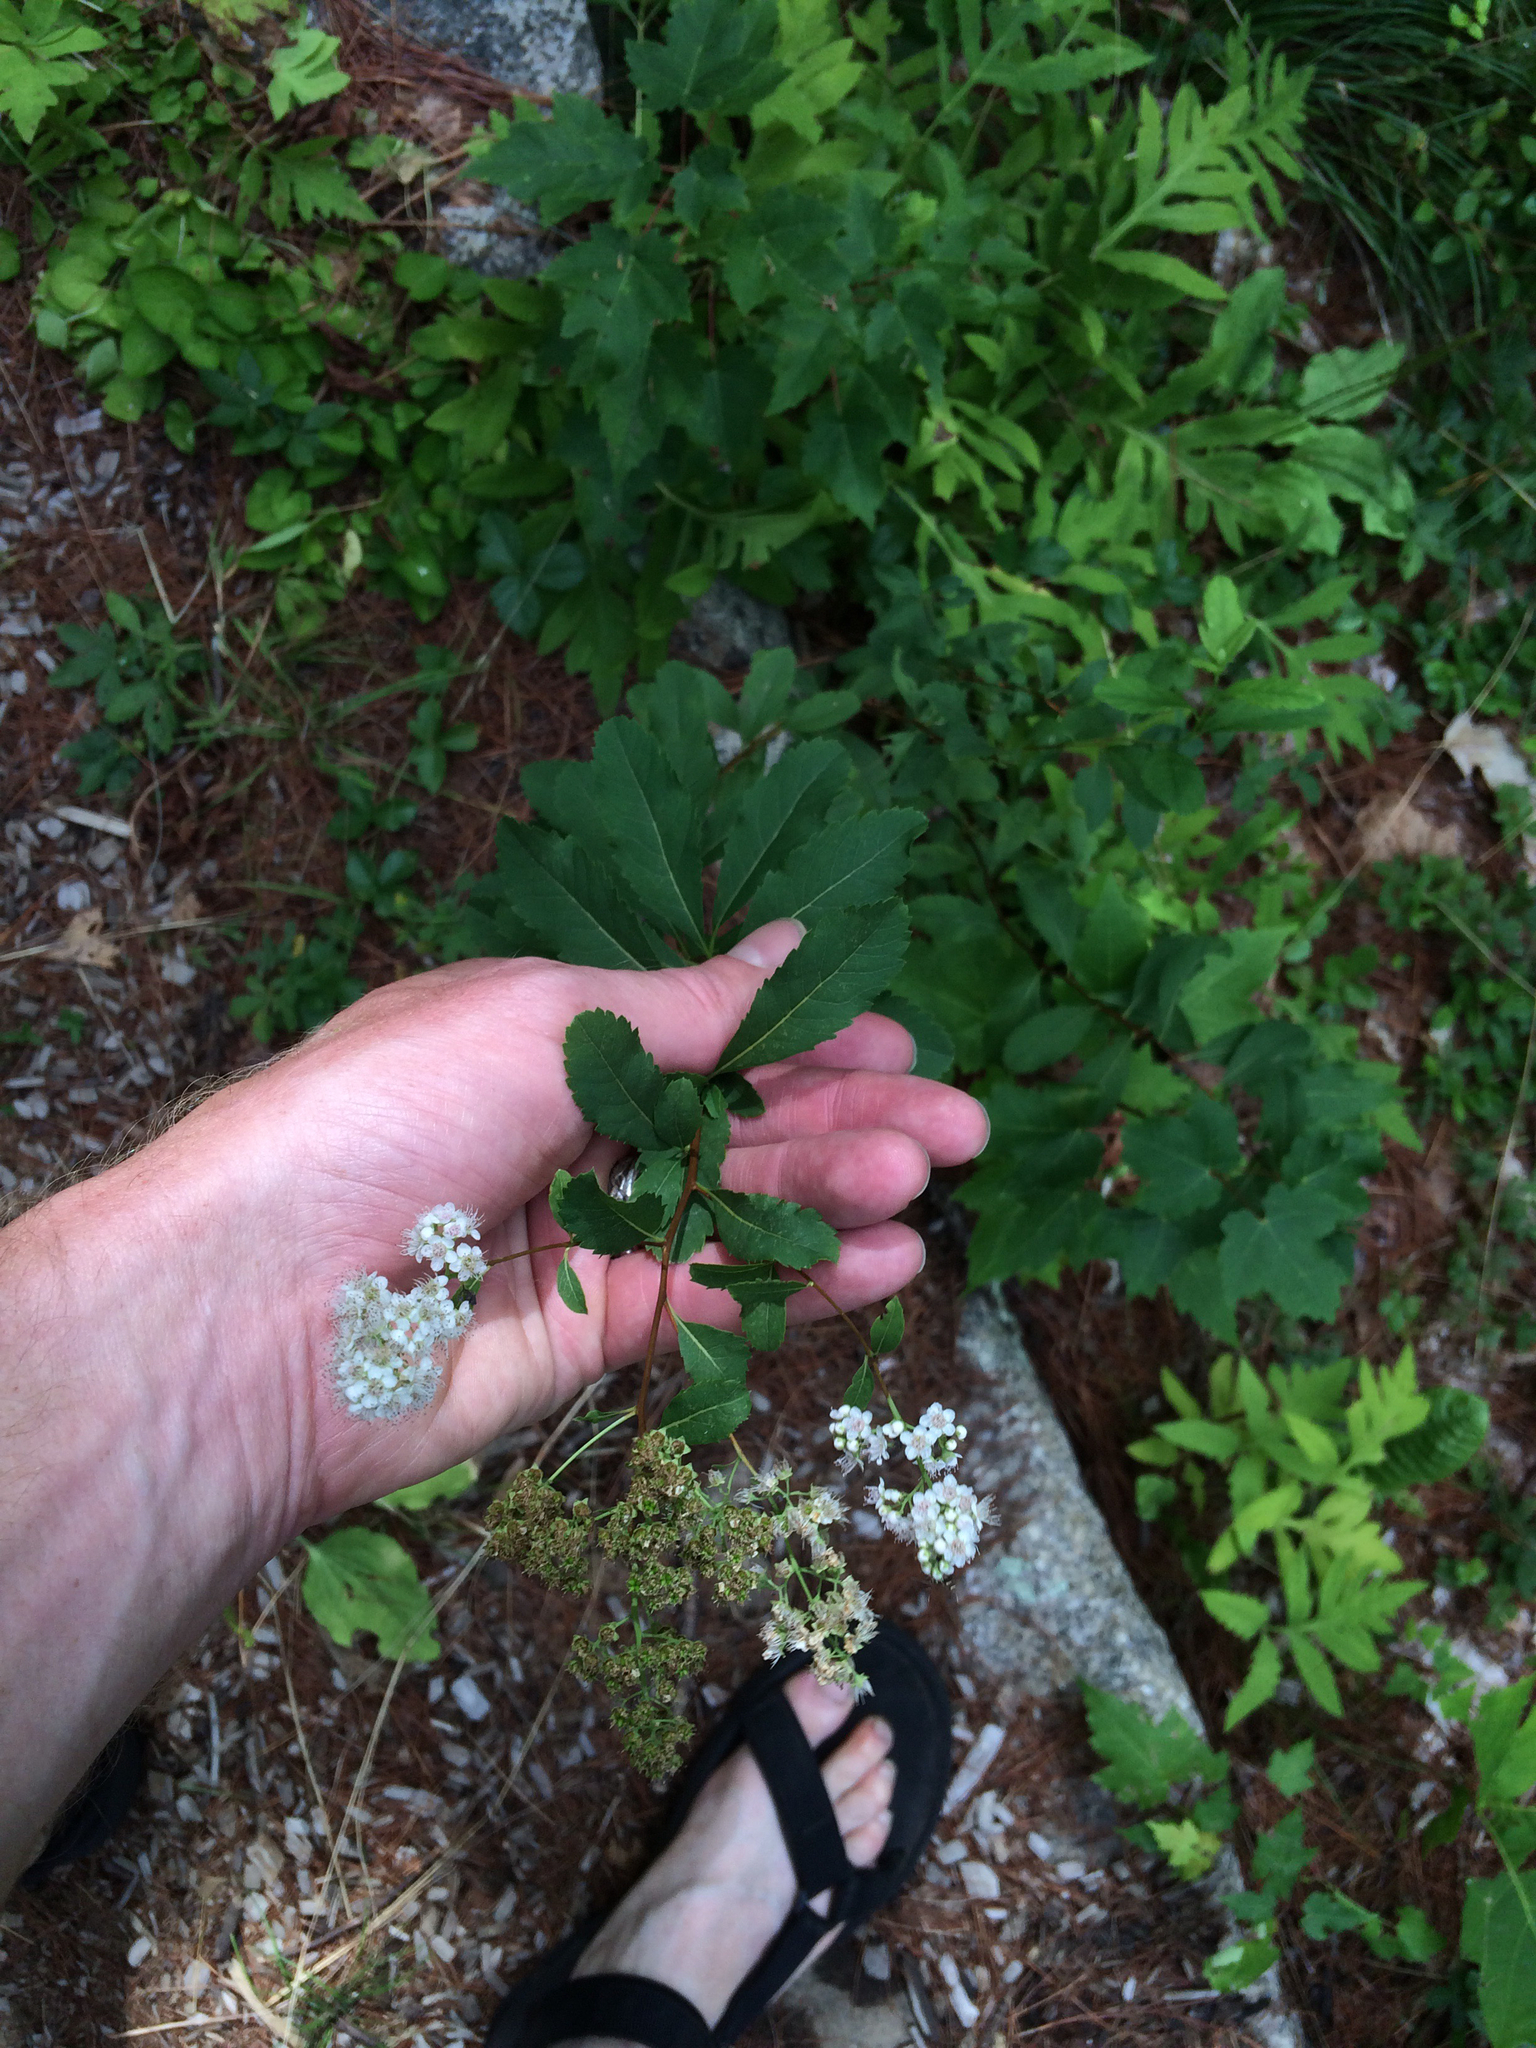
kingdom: Plantae
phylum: Tracheophyta
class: Magnoliopsida
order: Rosales
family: Rosaceae
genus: Spiraea
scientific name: Spiraea alba
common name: Pale bridewort
